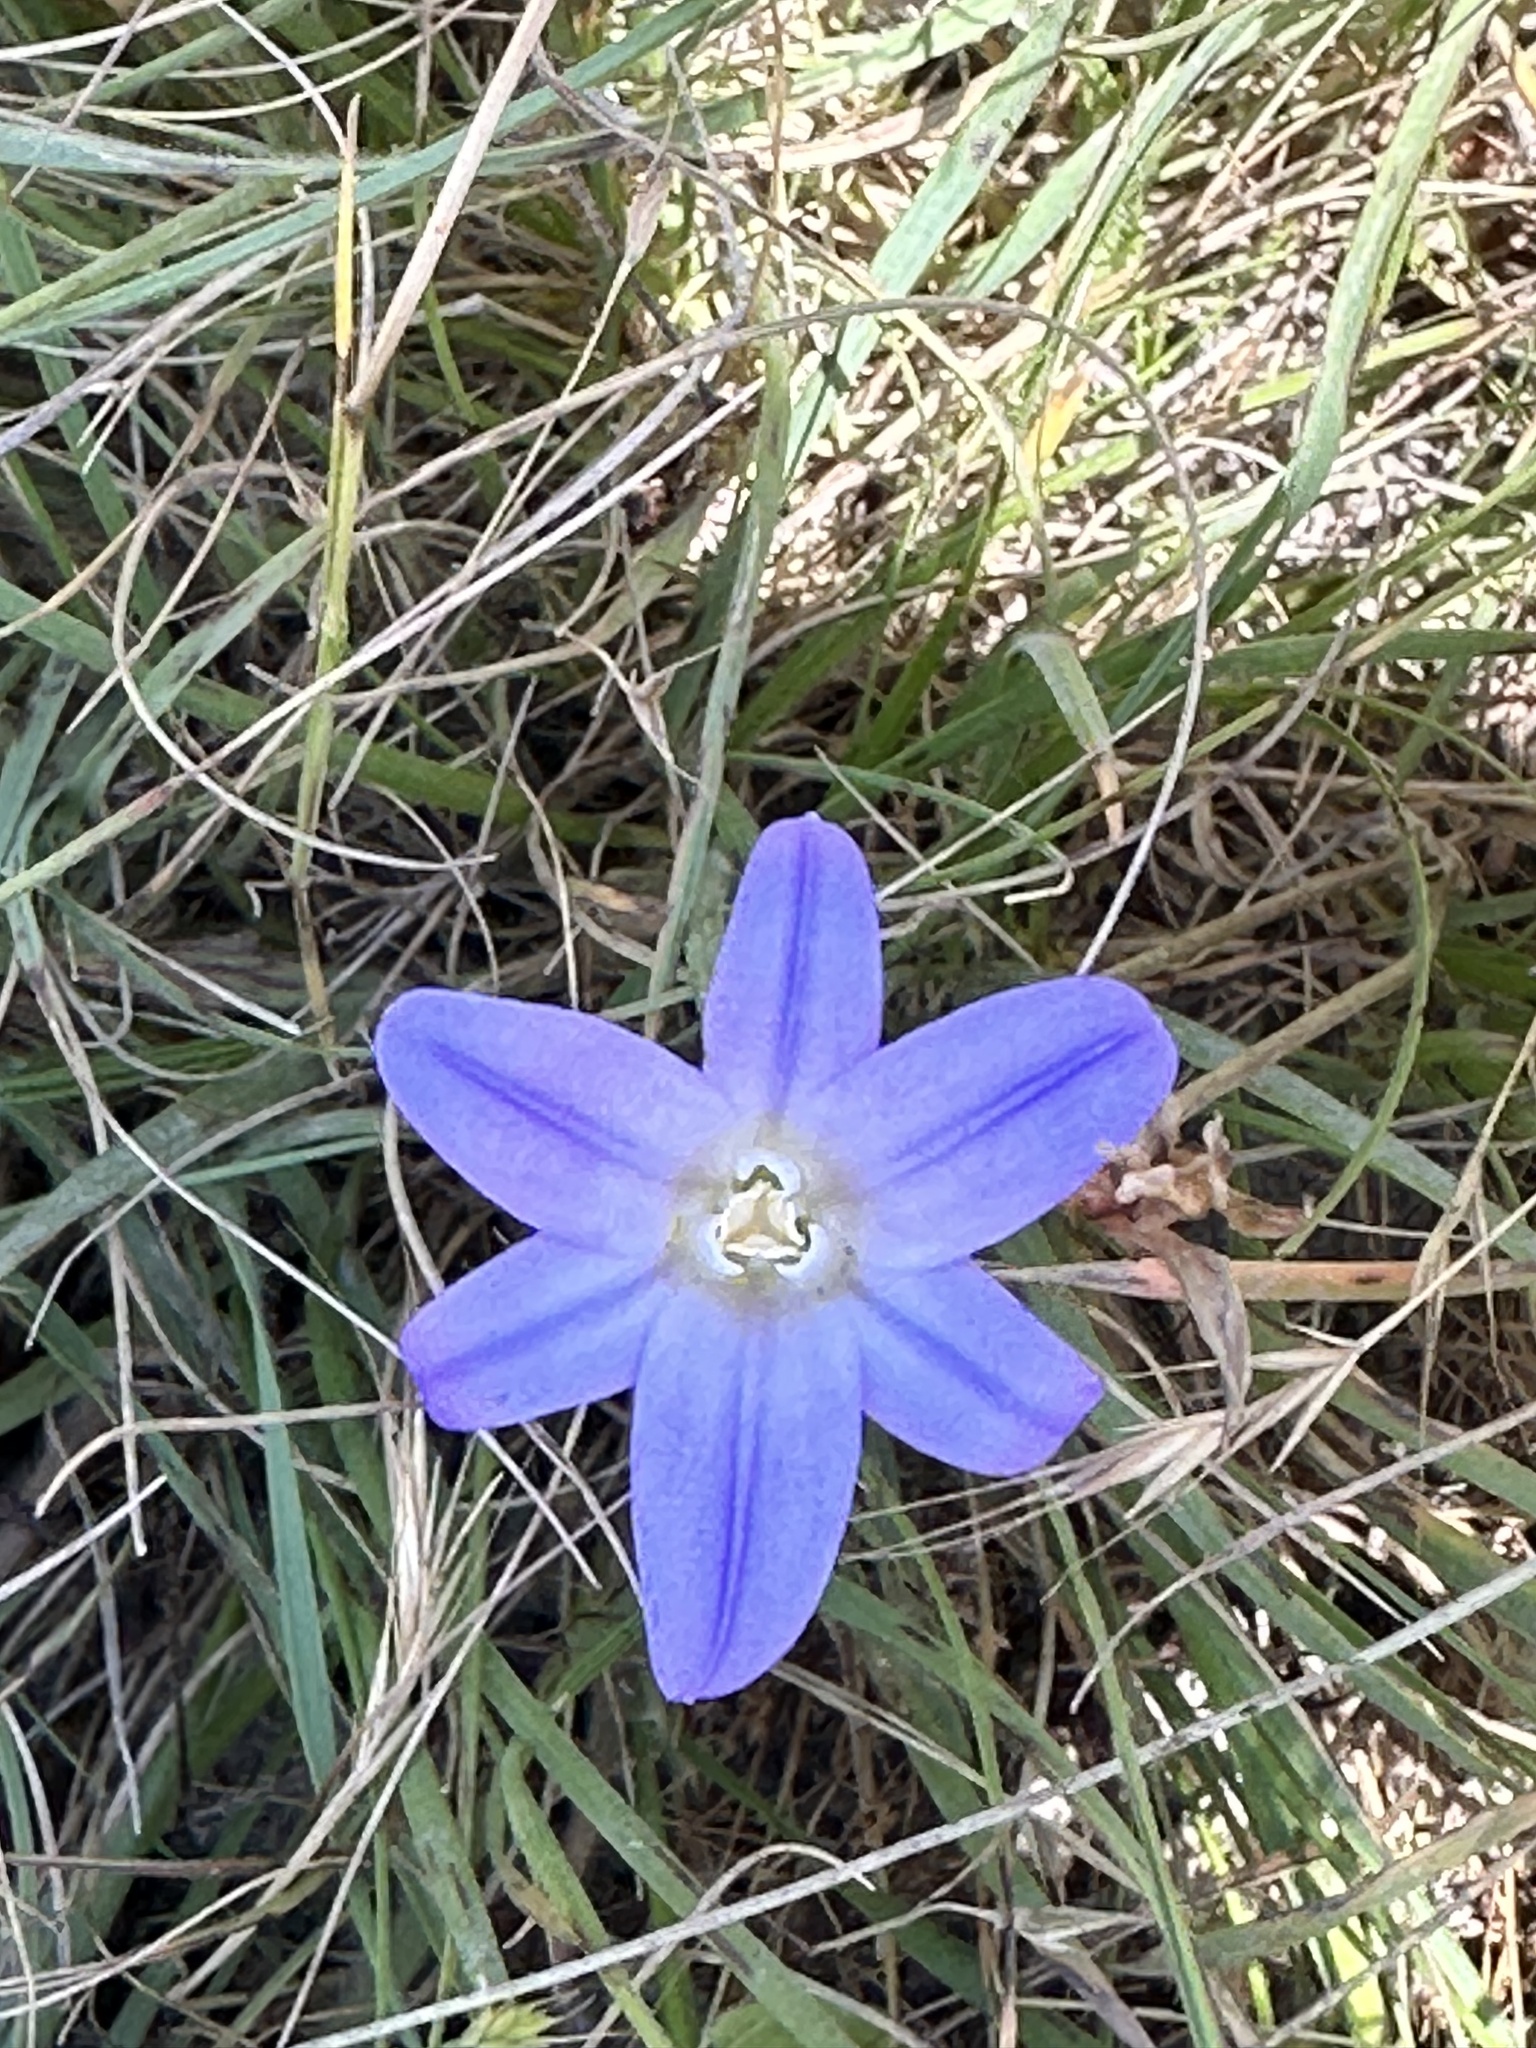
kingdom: Plantae
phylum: Tracheophyta
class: Liliopsida
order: Asparagales
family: Asparagaceae
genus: Brodiaea
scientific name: Brodiaea terrestris
